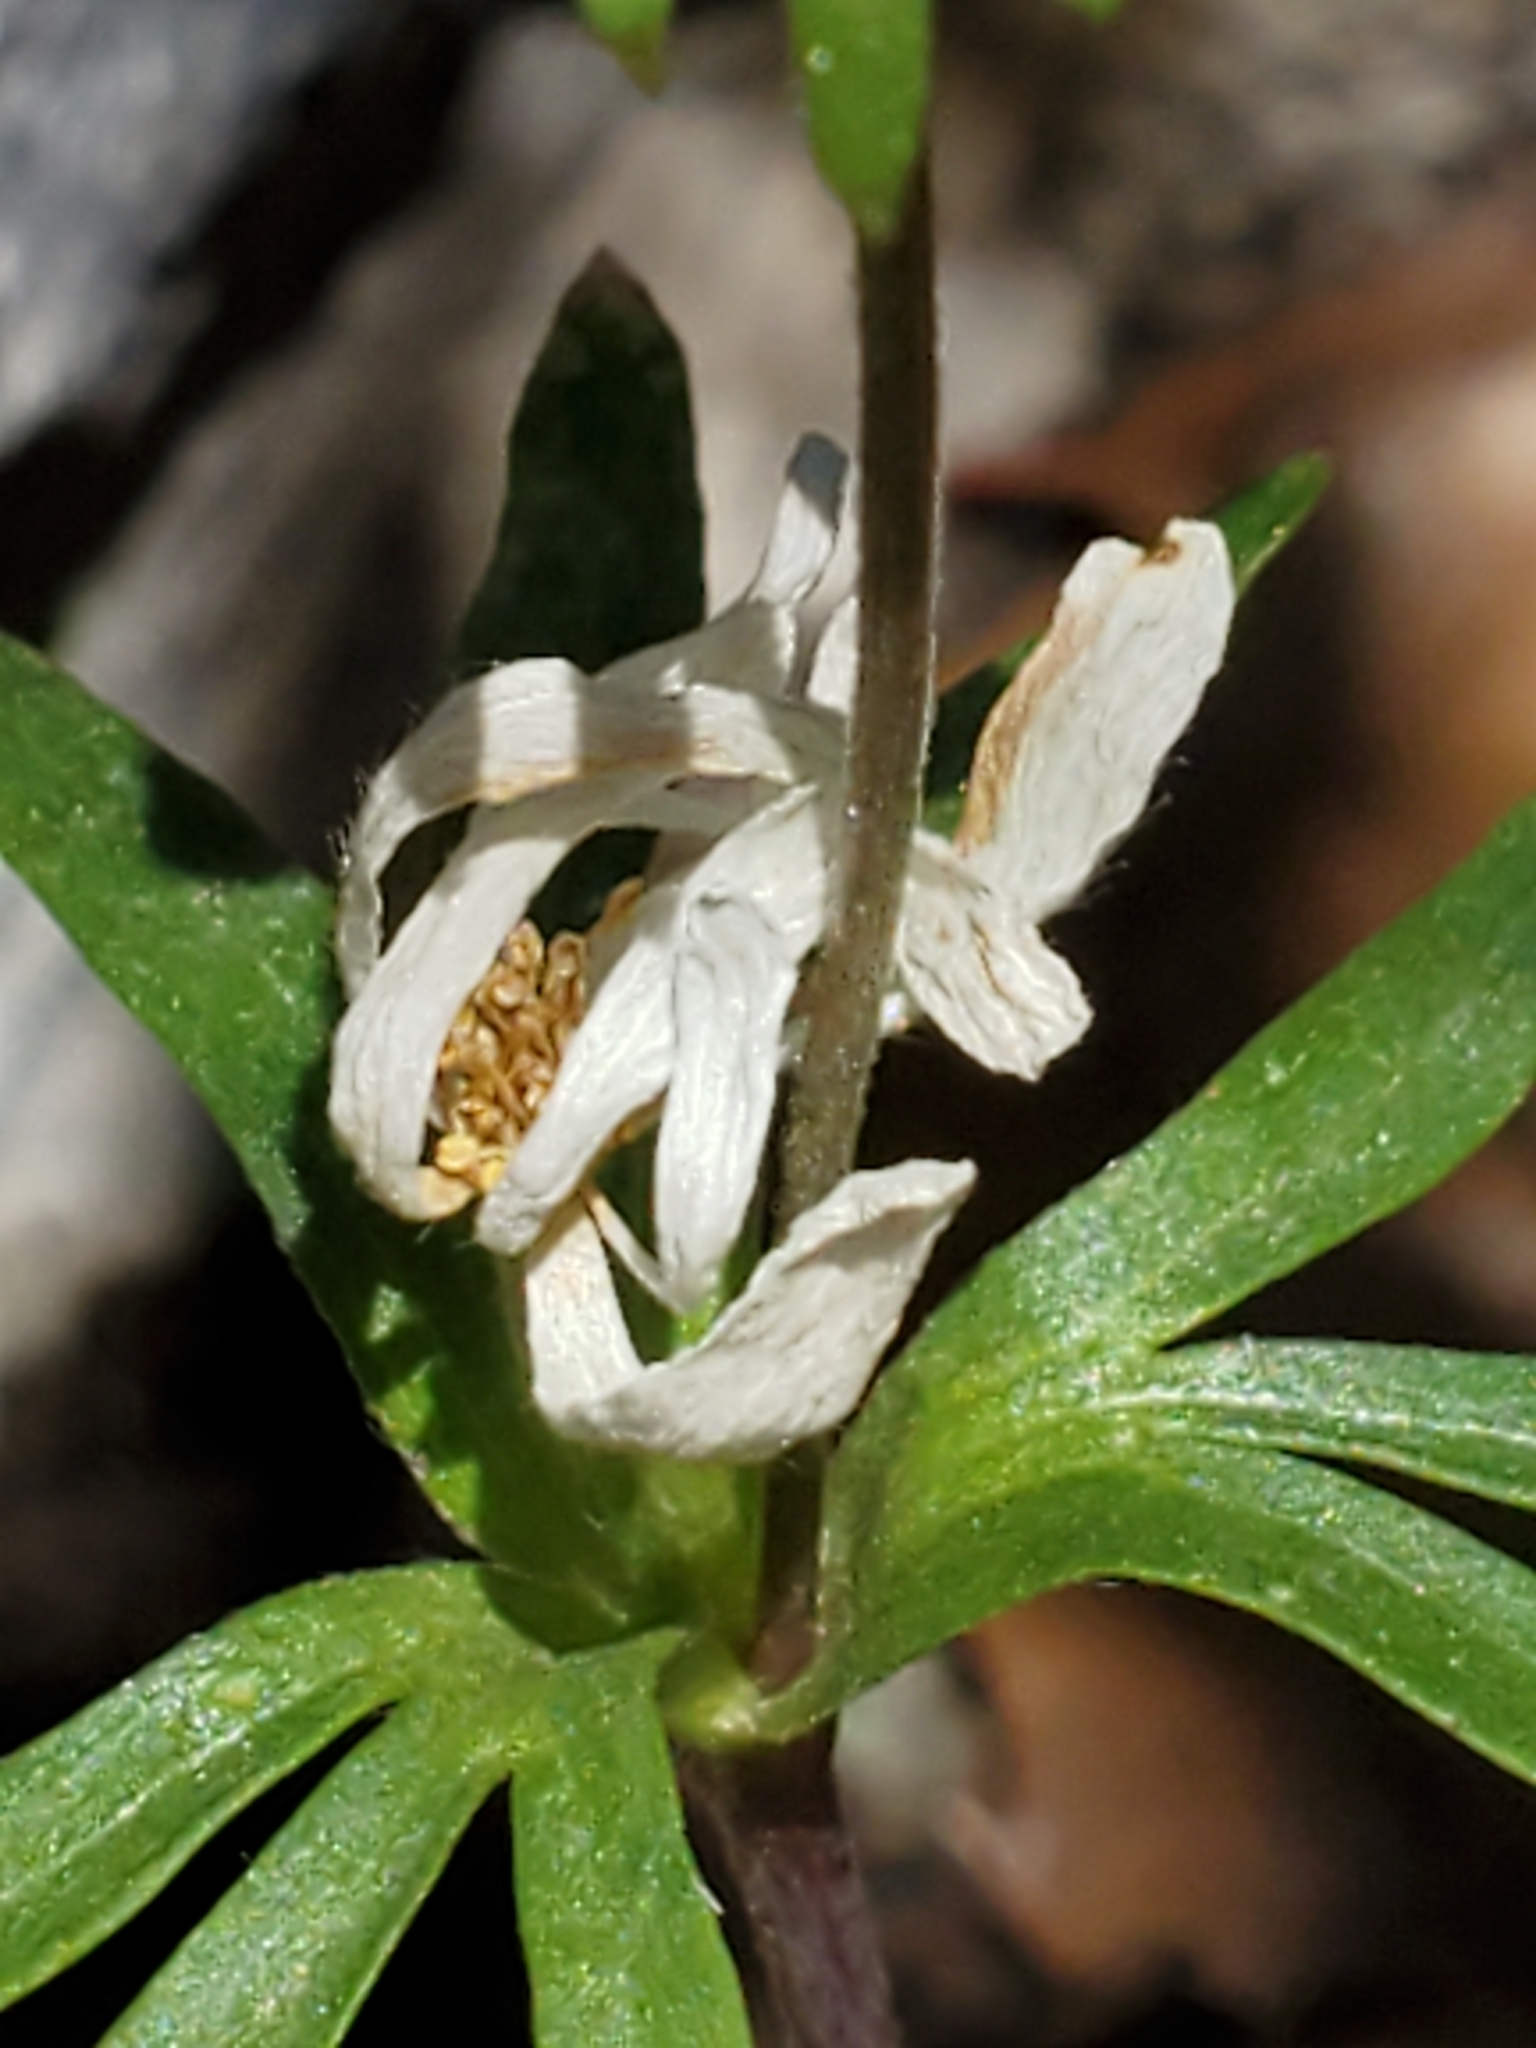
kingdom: Plantae
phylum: Tracheophyta
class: Magnoliopsida
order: Ranunculales
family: Ranunculaceae
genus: Anemone
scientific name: Anemone edwardsiana
